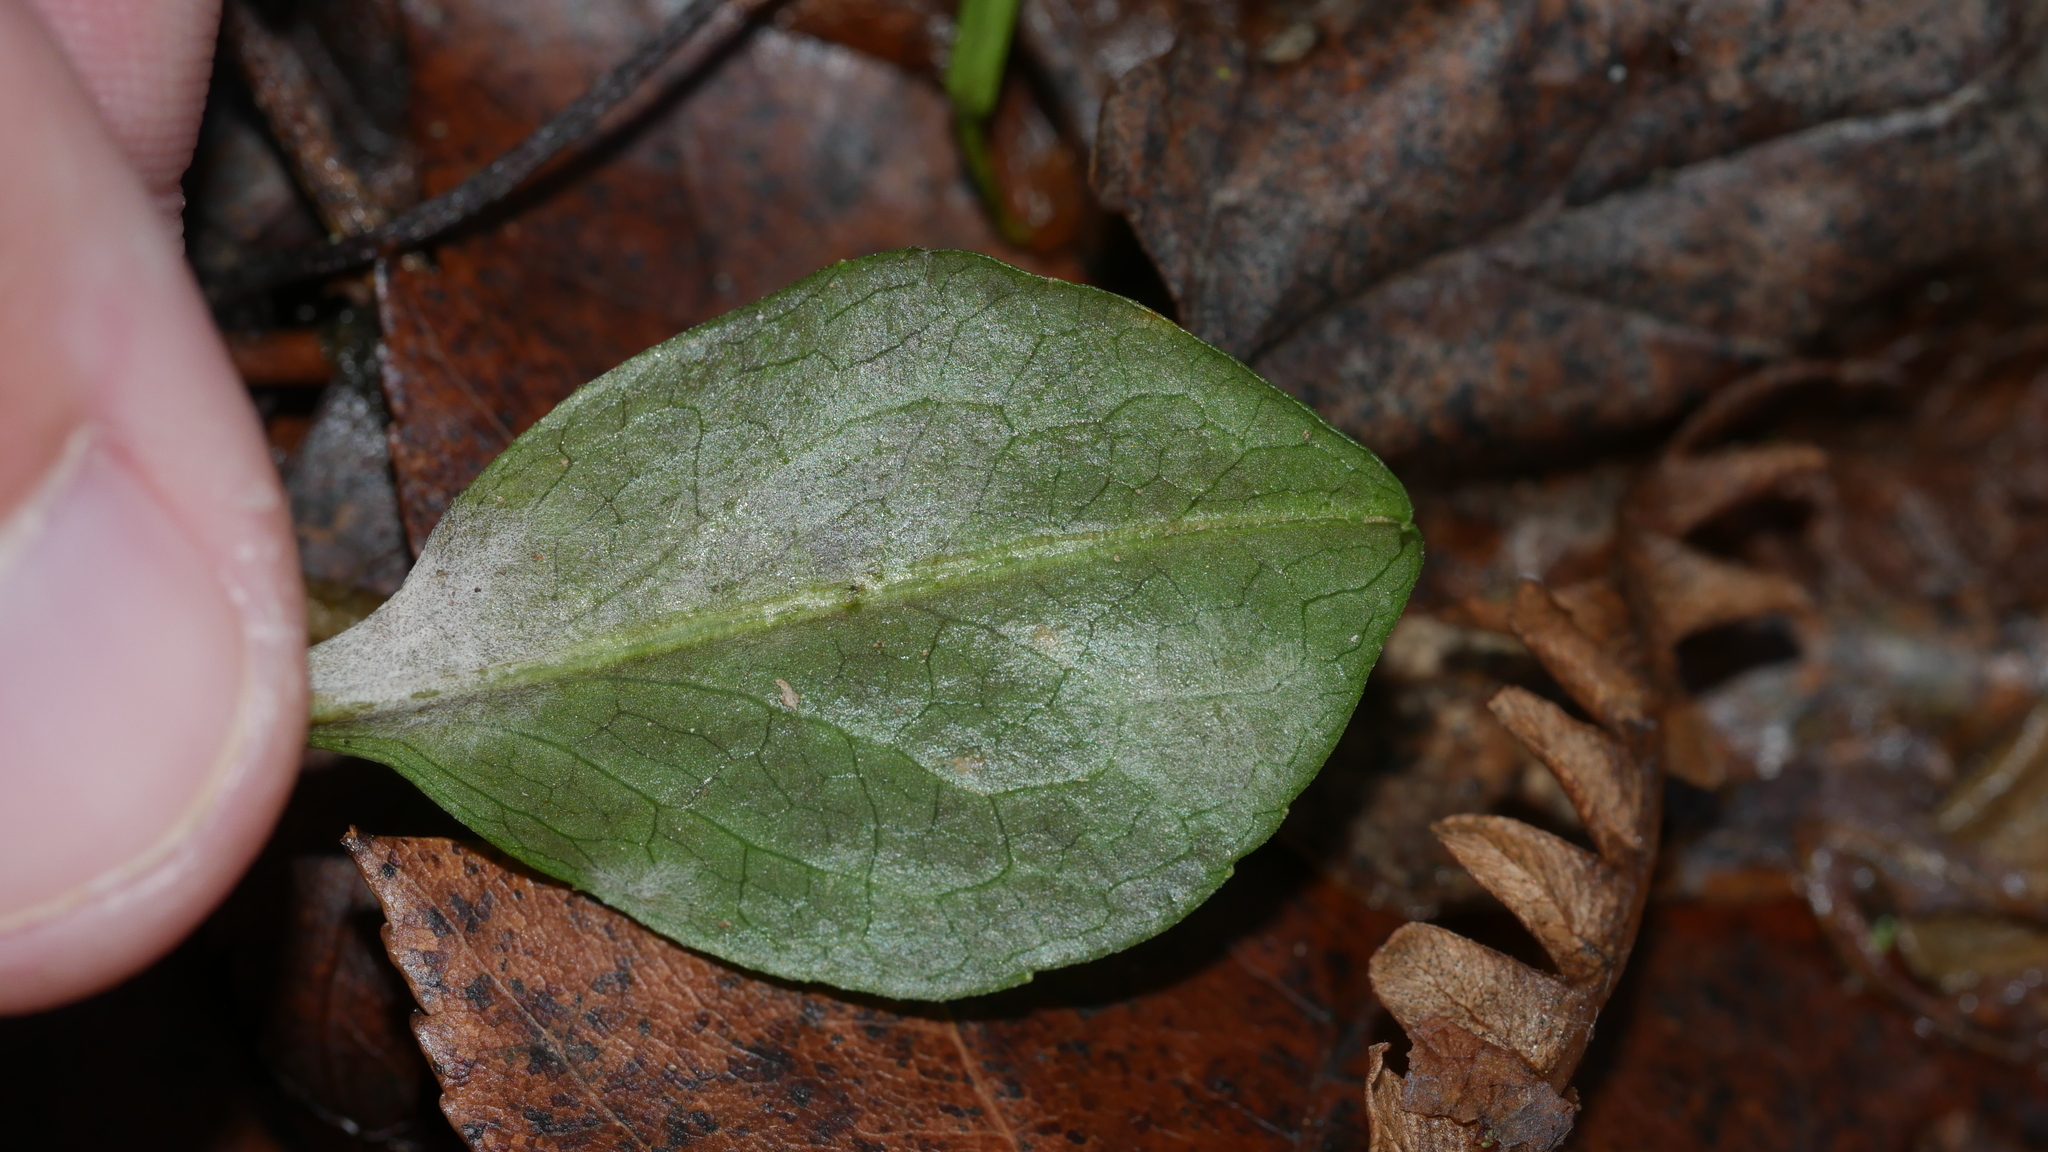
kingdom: Fungi
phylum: Ascomycota
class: Leotiomycetes
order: Helotiales
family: Erysiphaceae
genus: Golovinomyces
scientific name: Golovinomyces asterum
